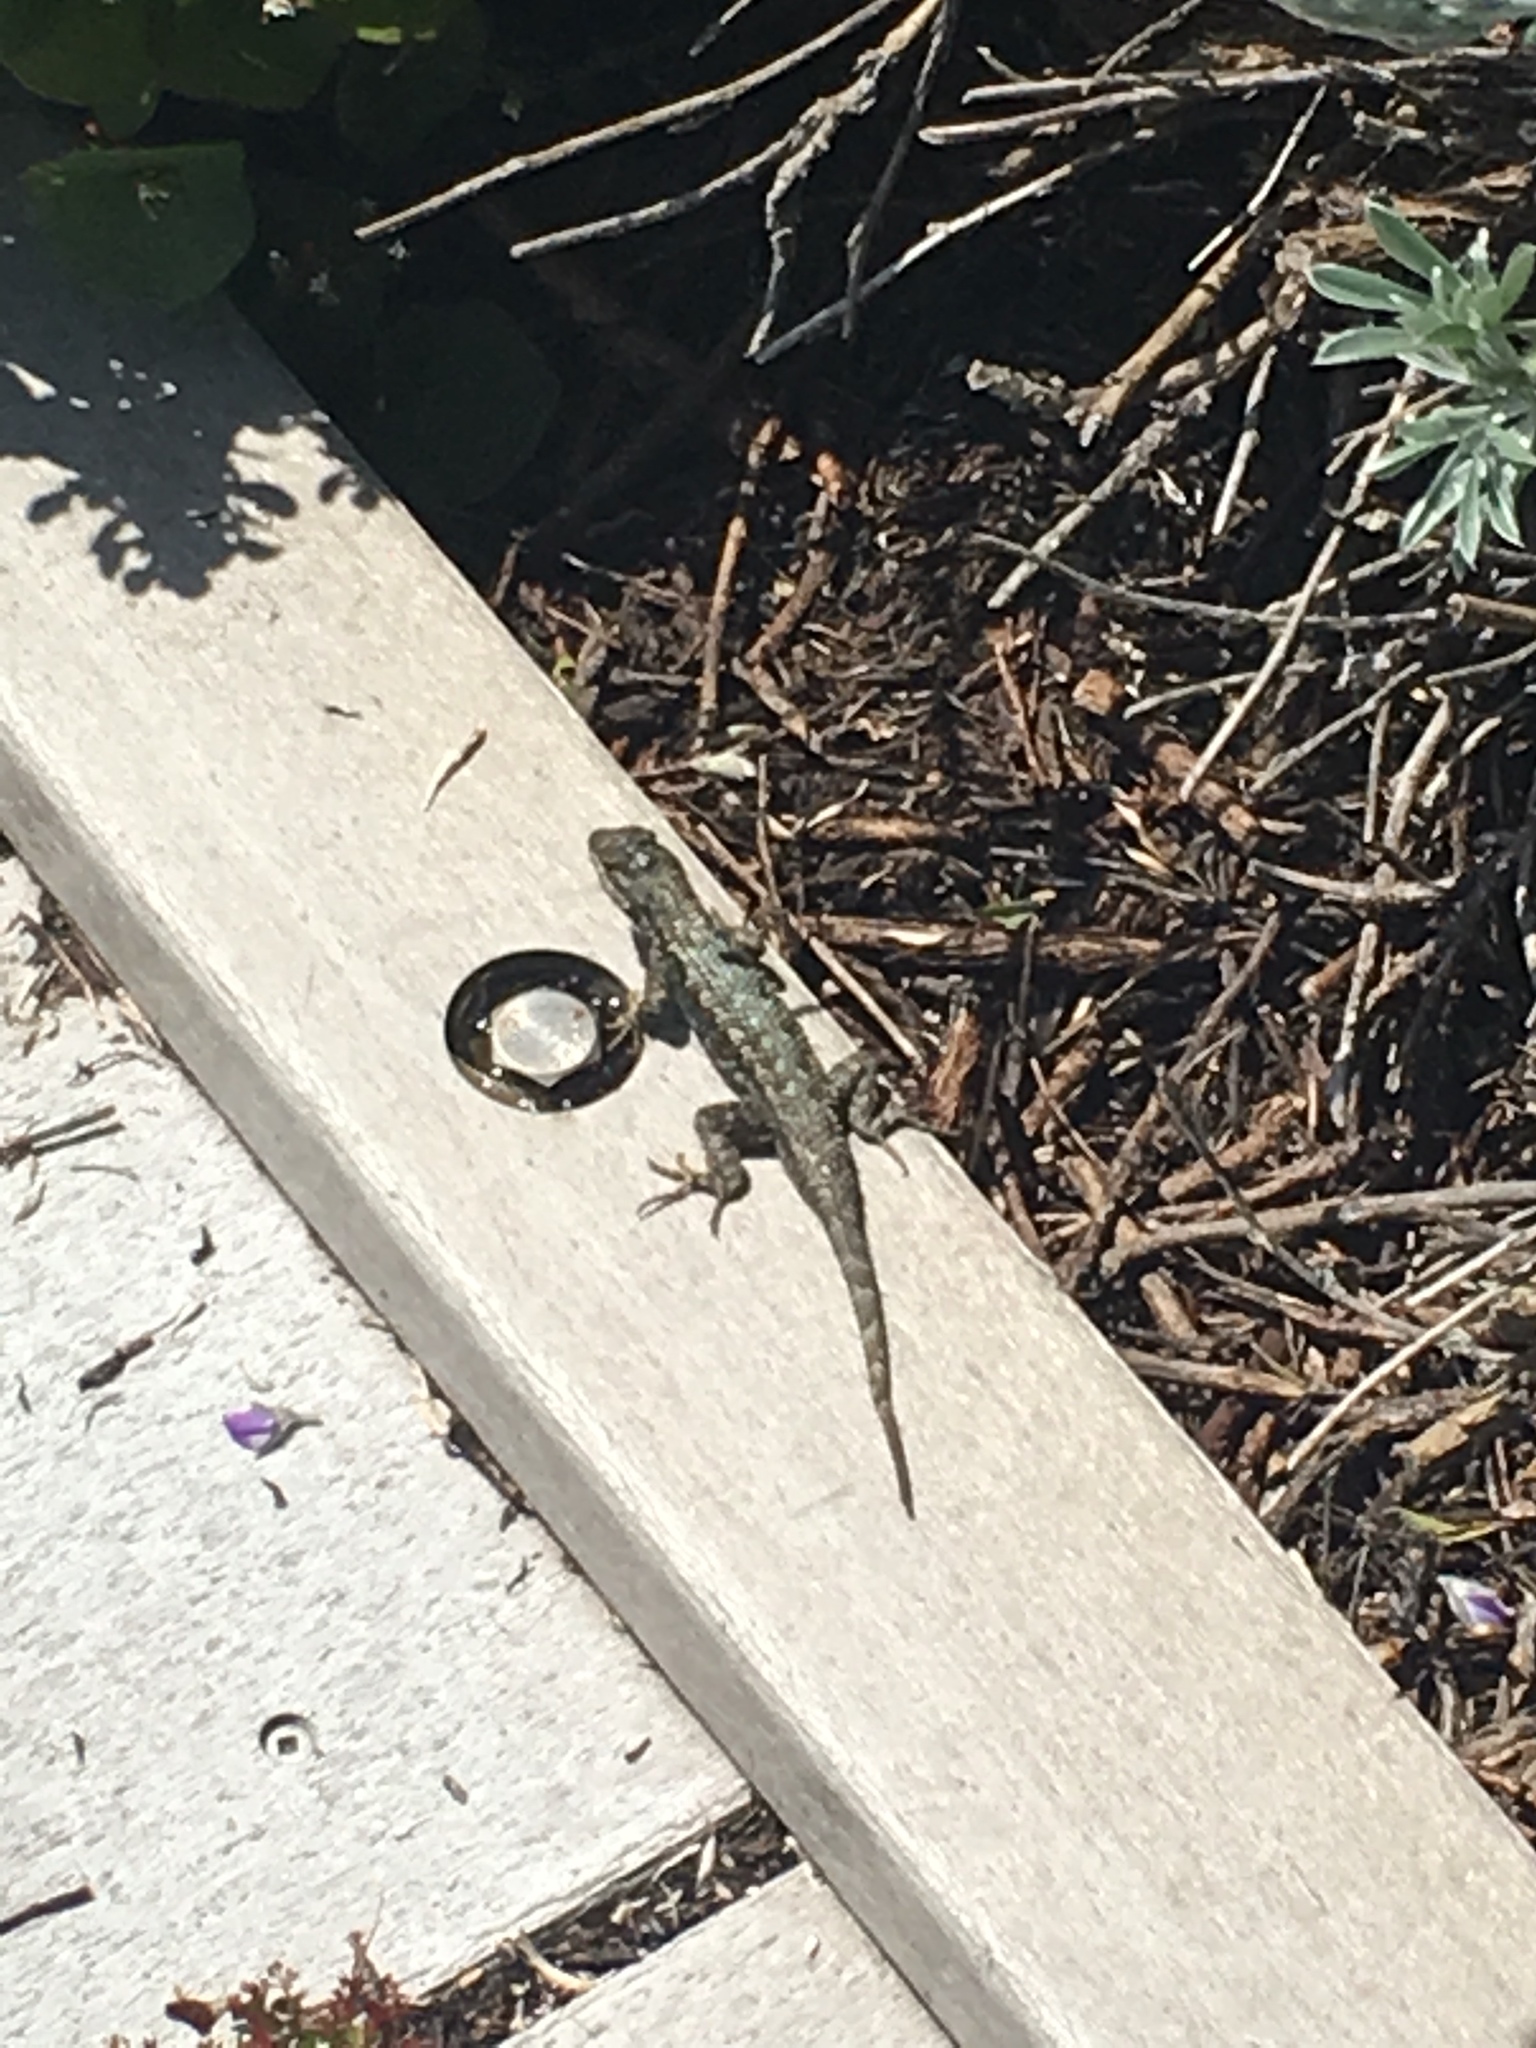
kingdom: Animalia
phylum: Chordata
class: Squamata
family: Phrynosomatidae
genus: Sceloporus
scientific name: Sceloporus occidentalis
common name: Western fence lizard
